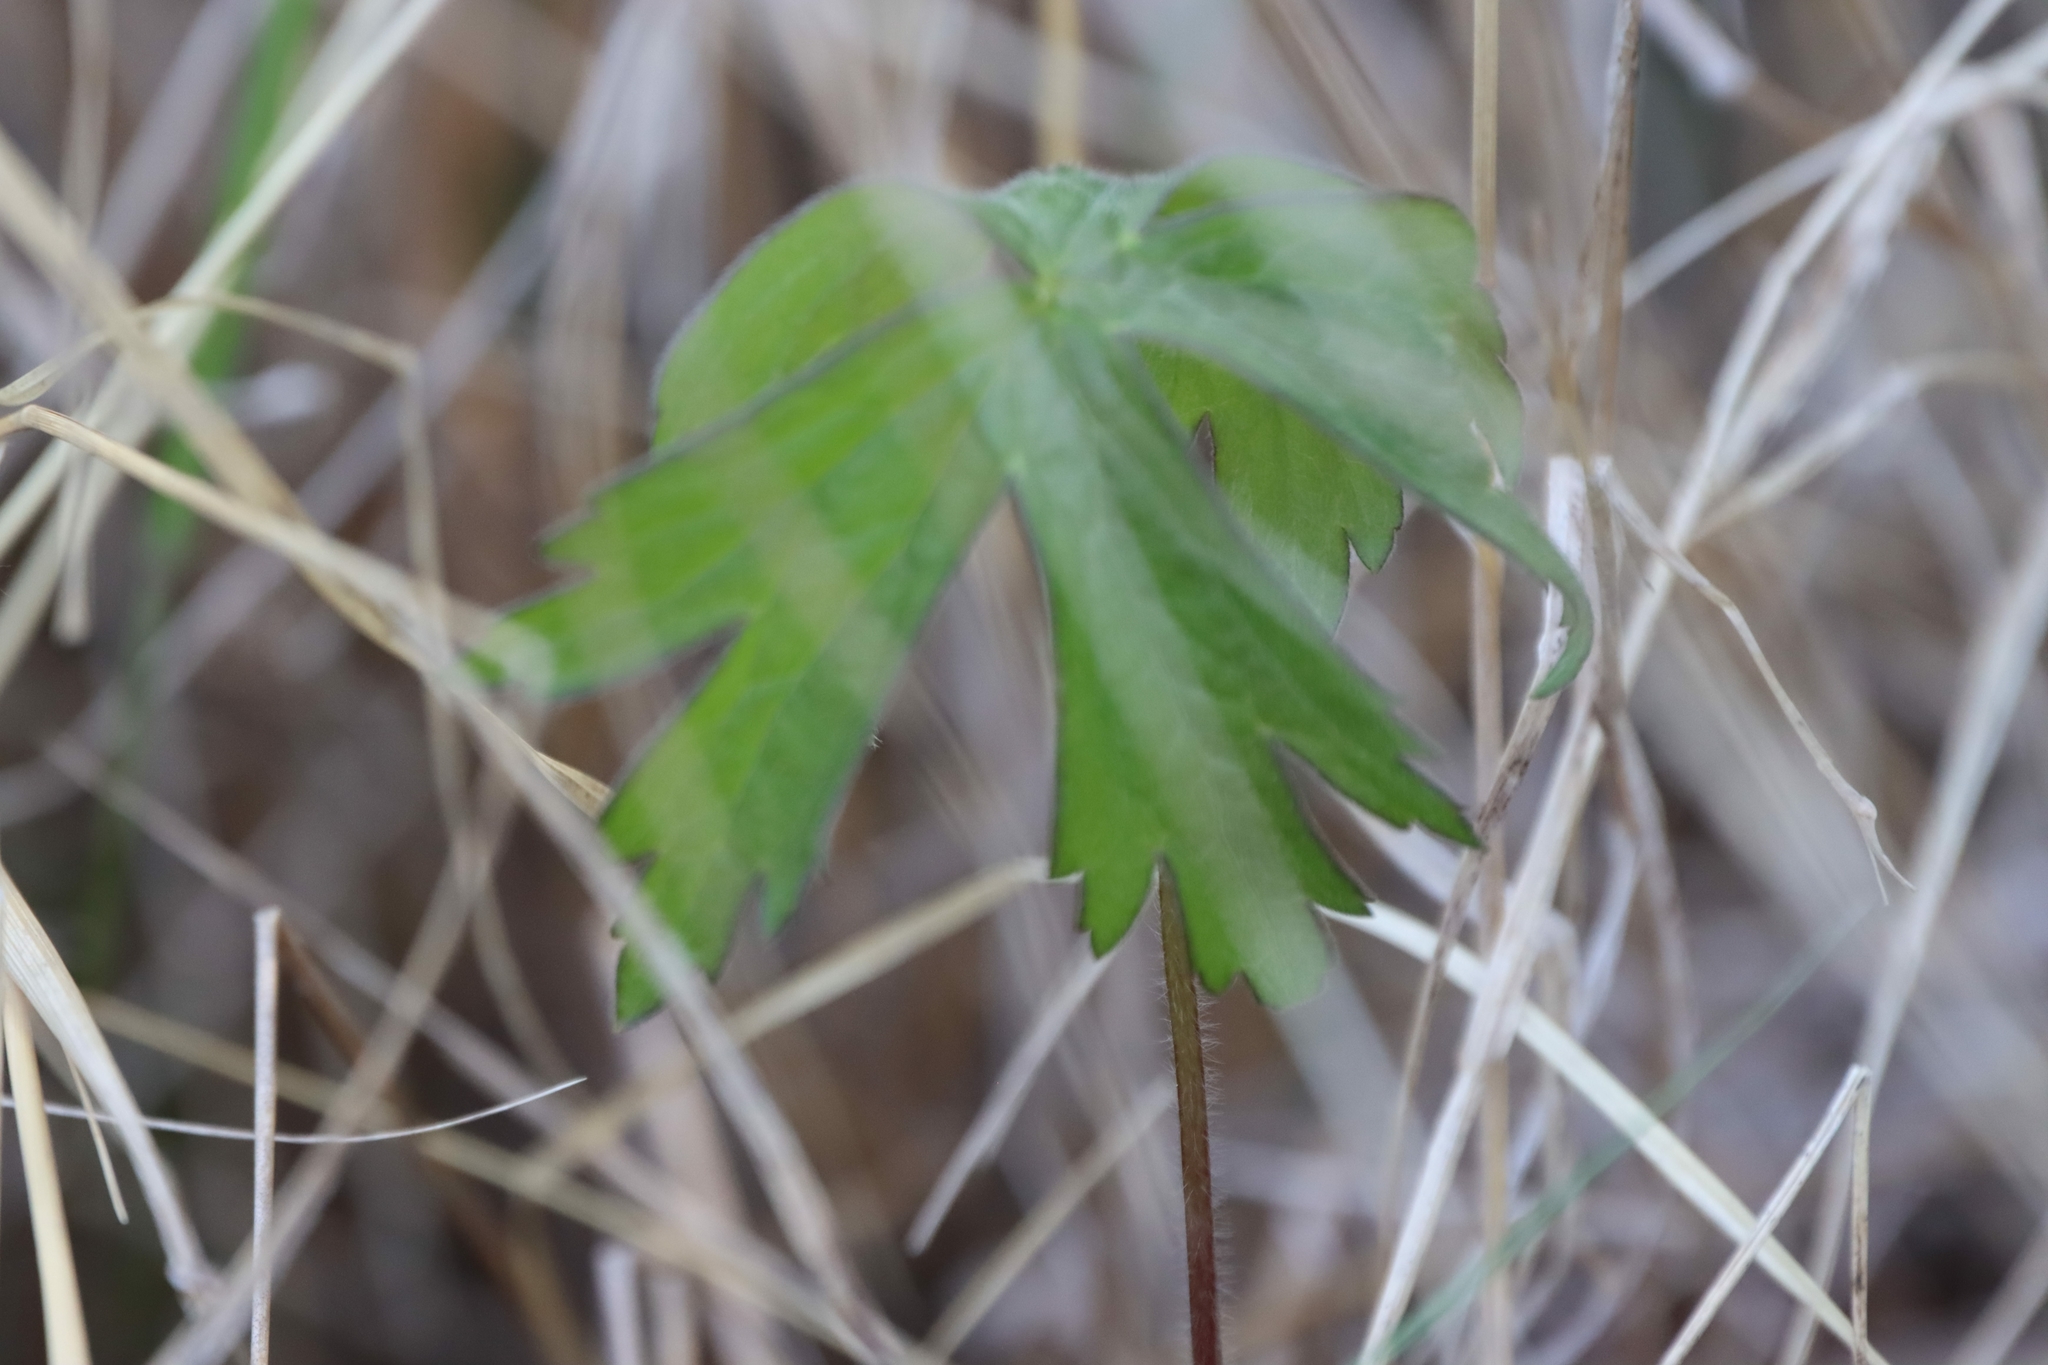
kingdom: Plantae
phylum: Tracheophyta
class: Magnoliopsida
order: Ranunculales
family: Ranunculaceae
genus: Anemonastrum
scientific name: Anemonastrum canadense
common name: Canada anemone
